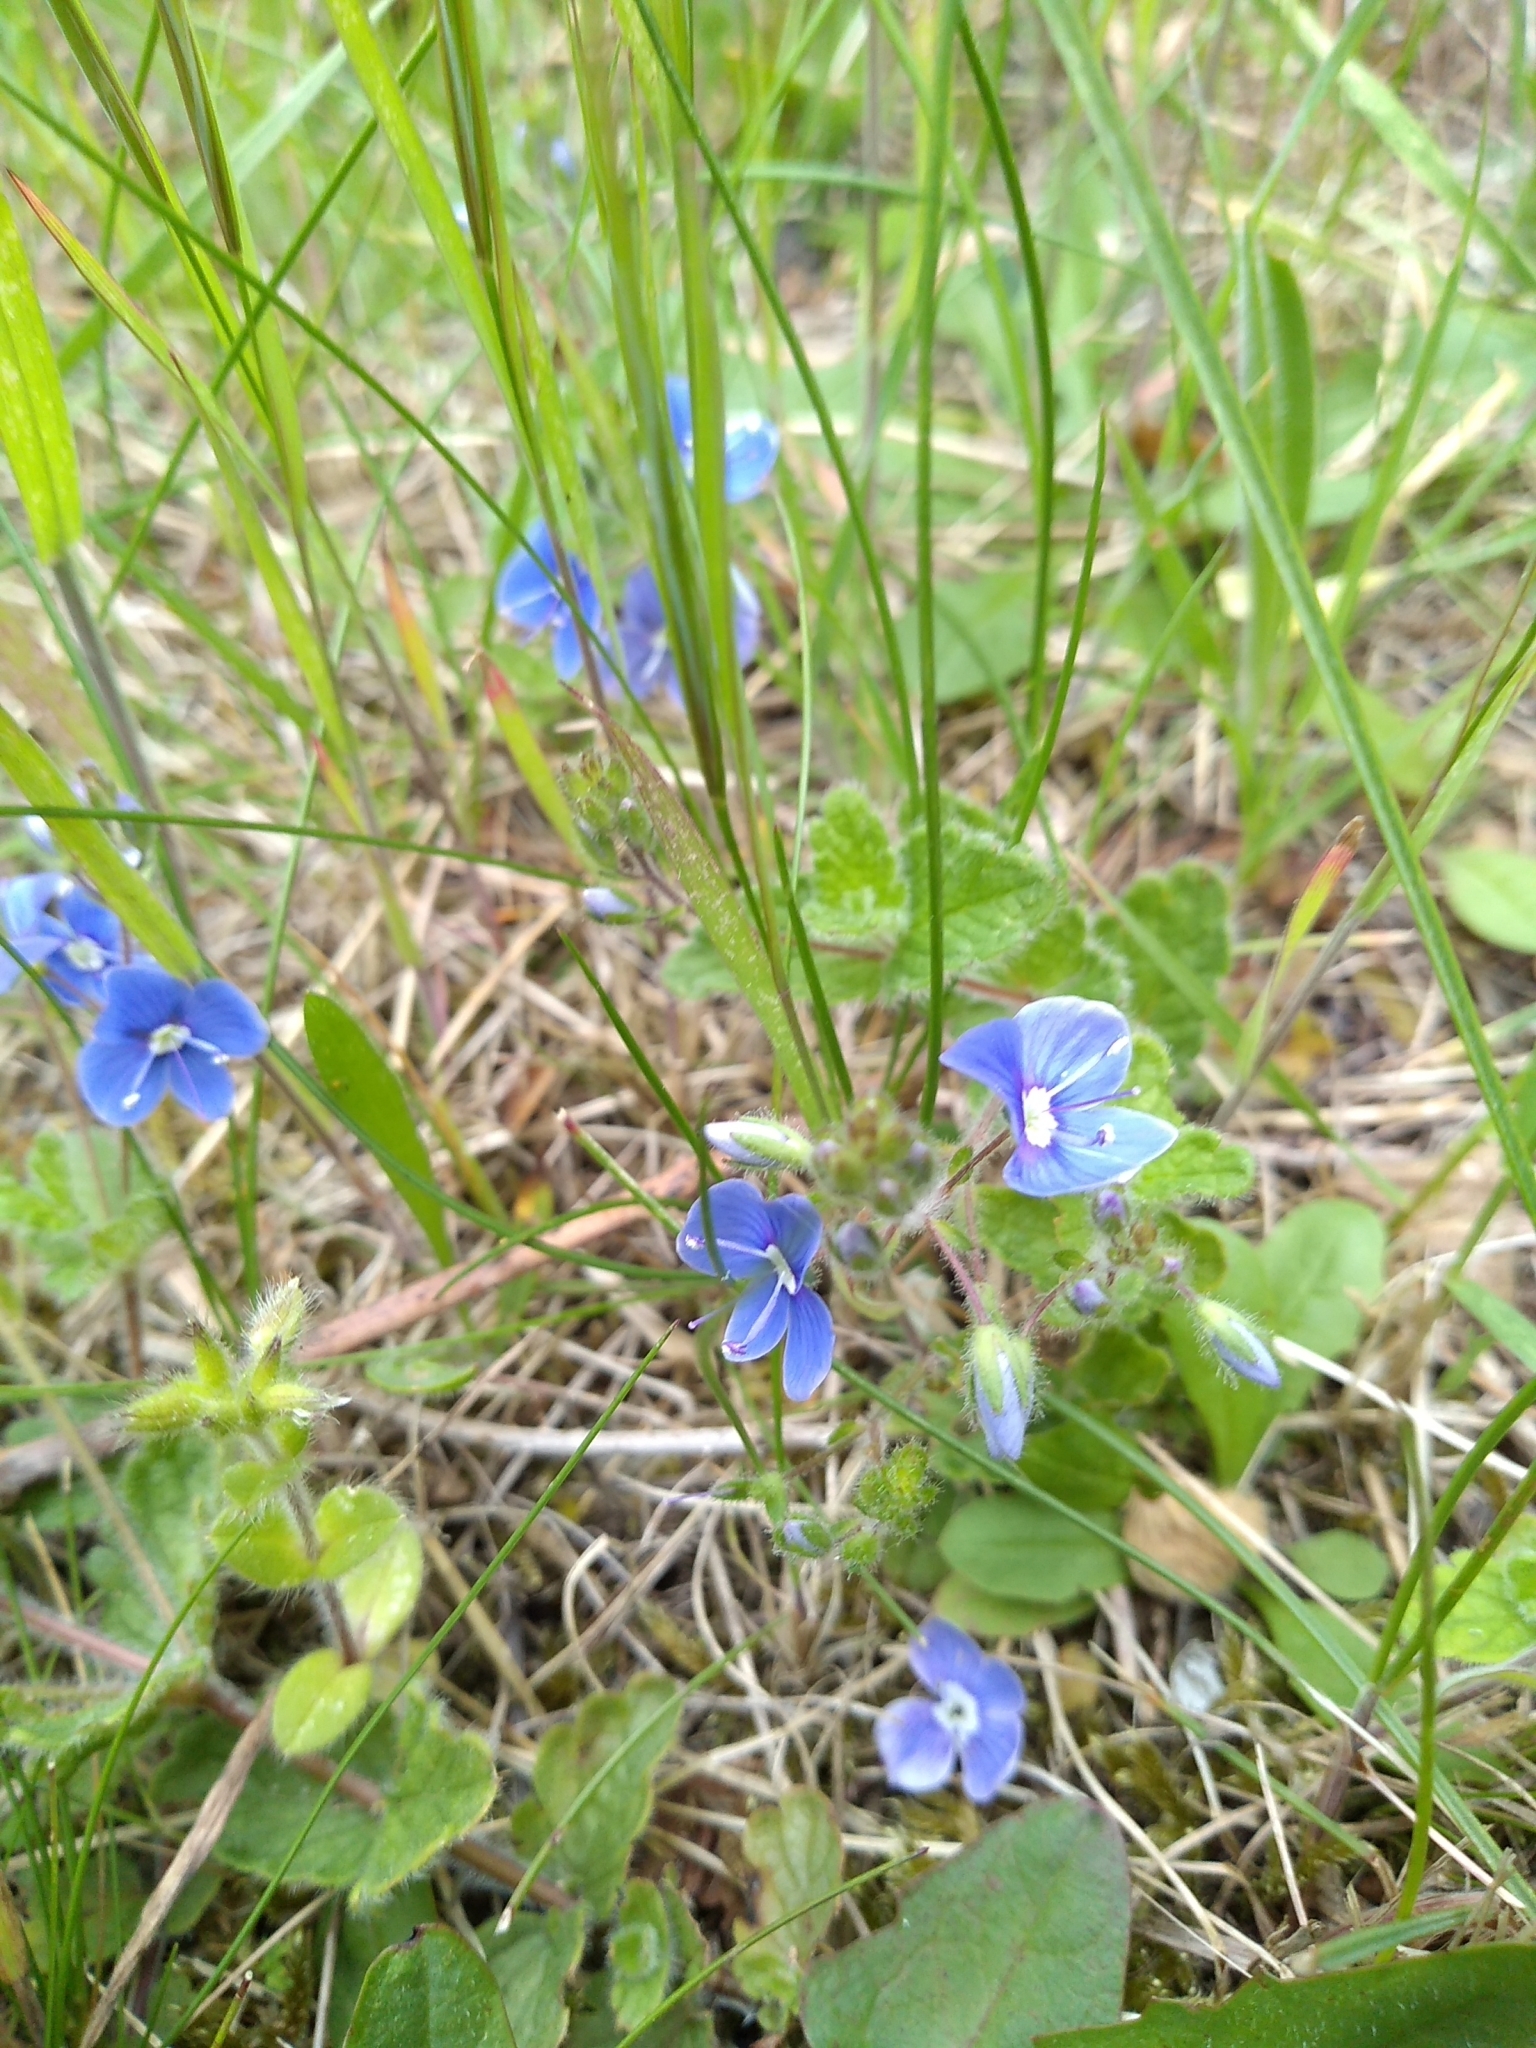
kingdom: Plantae
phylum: Tracheophyta
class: Magnoliopsida
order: Lamiales
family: Plantaginaceae
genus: Veronica
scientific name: Veronica chamaedrys
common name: Germander speedwell
